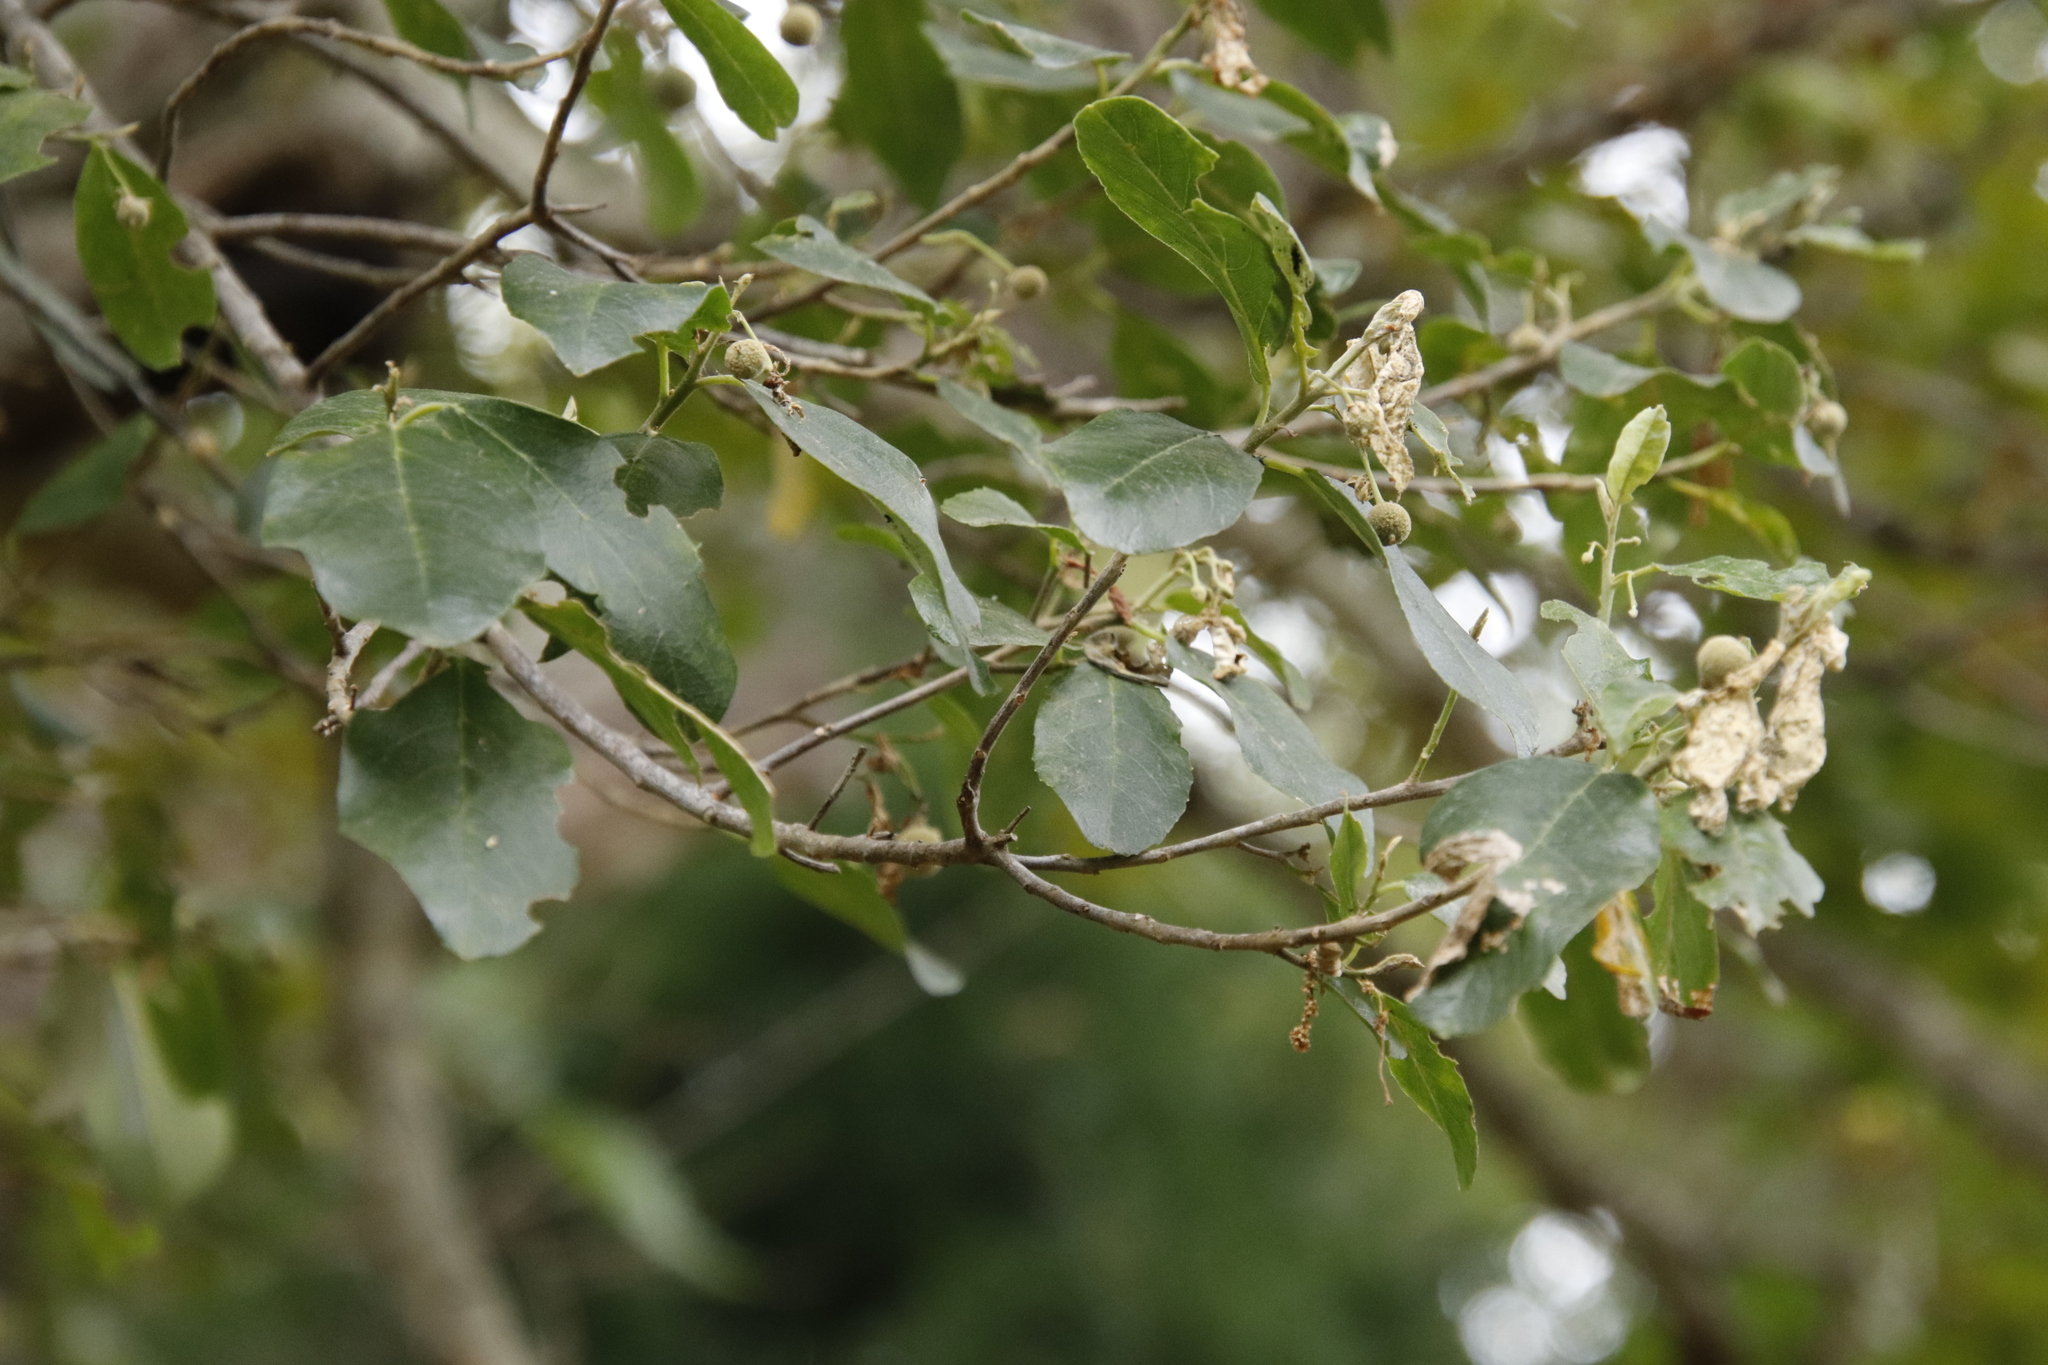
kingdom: Plantae
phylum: Tracheophyta
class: Magnoliopsida
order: Malpighiales
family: Achariaceae
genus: Kiggelaria
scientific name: Kiggelaria africana
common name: Wild peach
